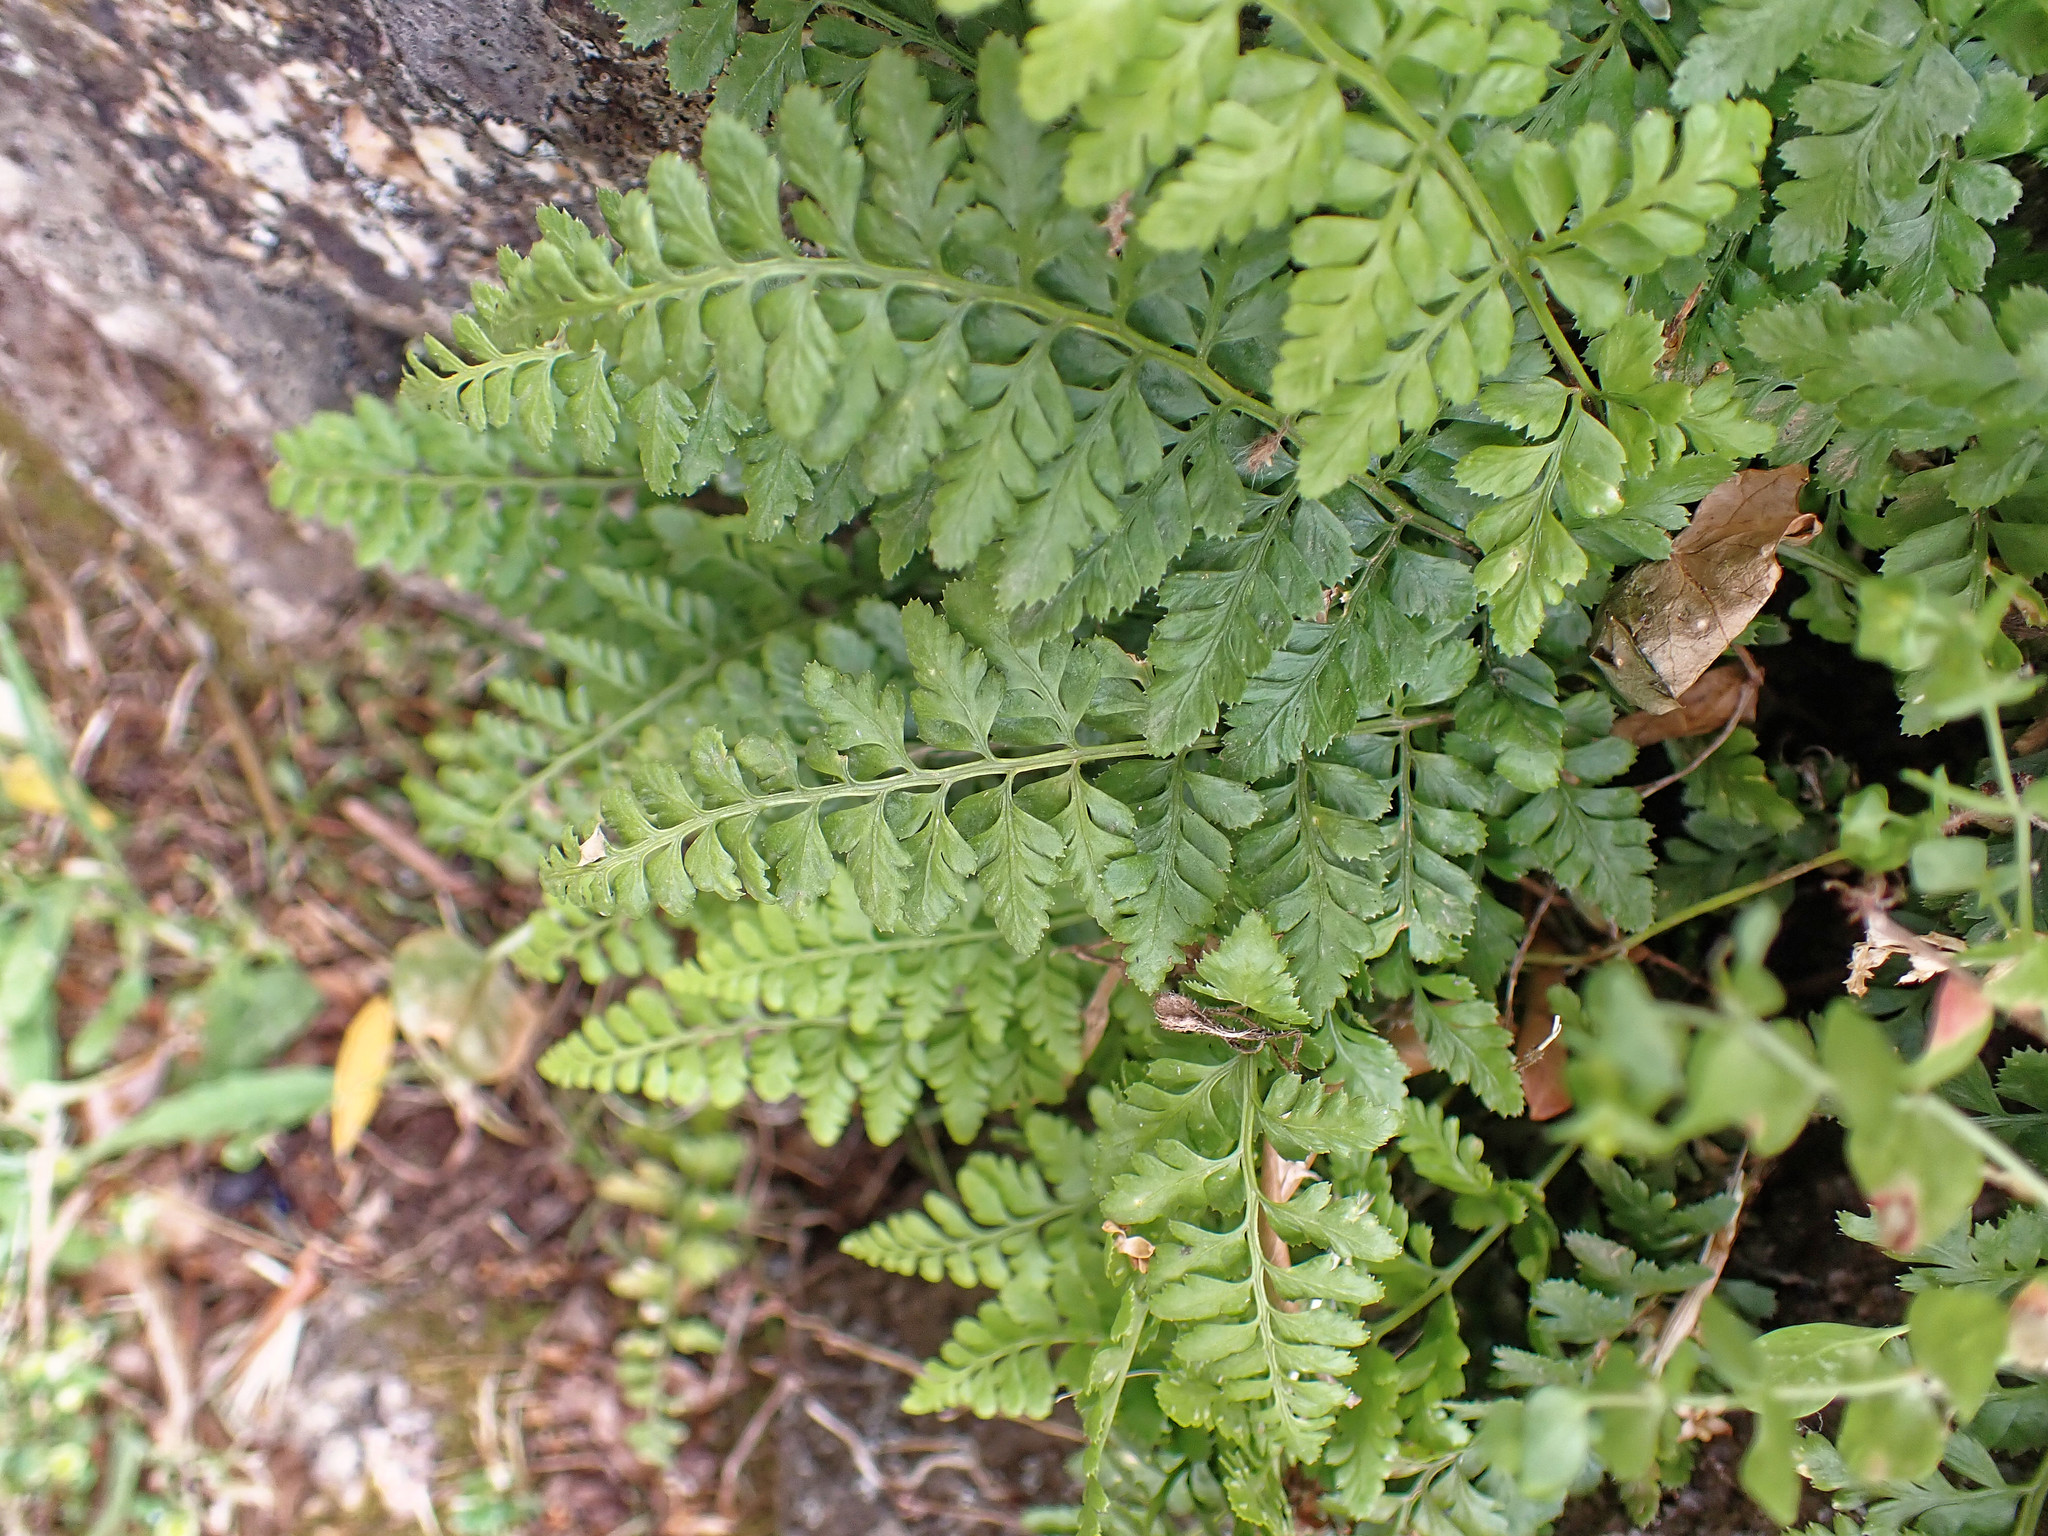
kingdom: Plantae
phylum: Tracheophyta
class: Polypodiopsida
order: Polypodiales
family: Aspleniaceae
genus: Asplenium
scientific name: Asplenium obovatum
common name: Lanceolate spleenwort
